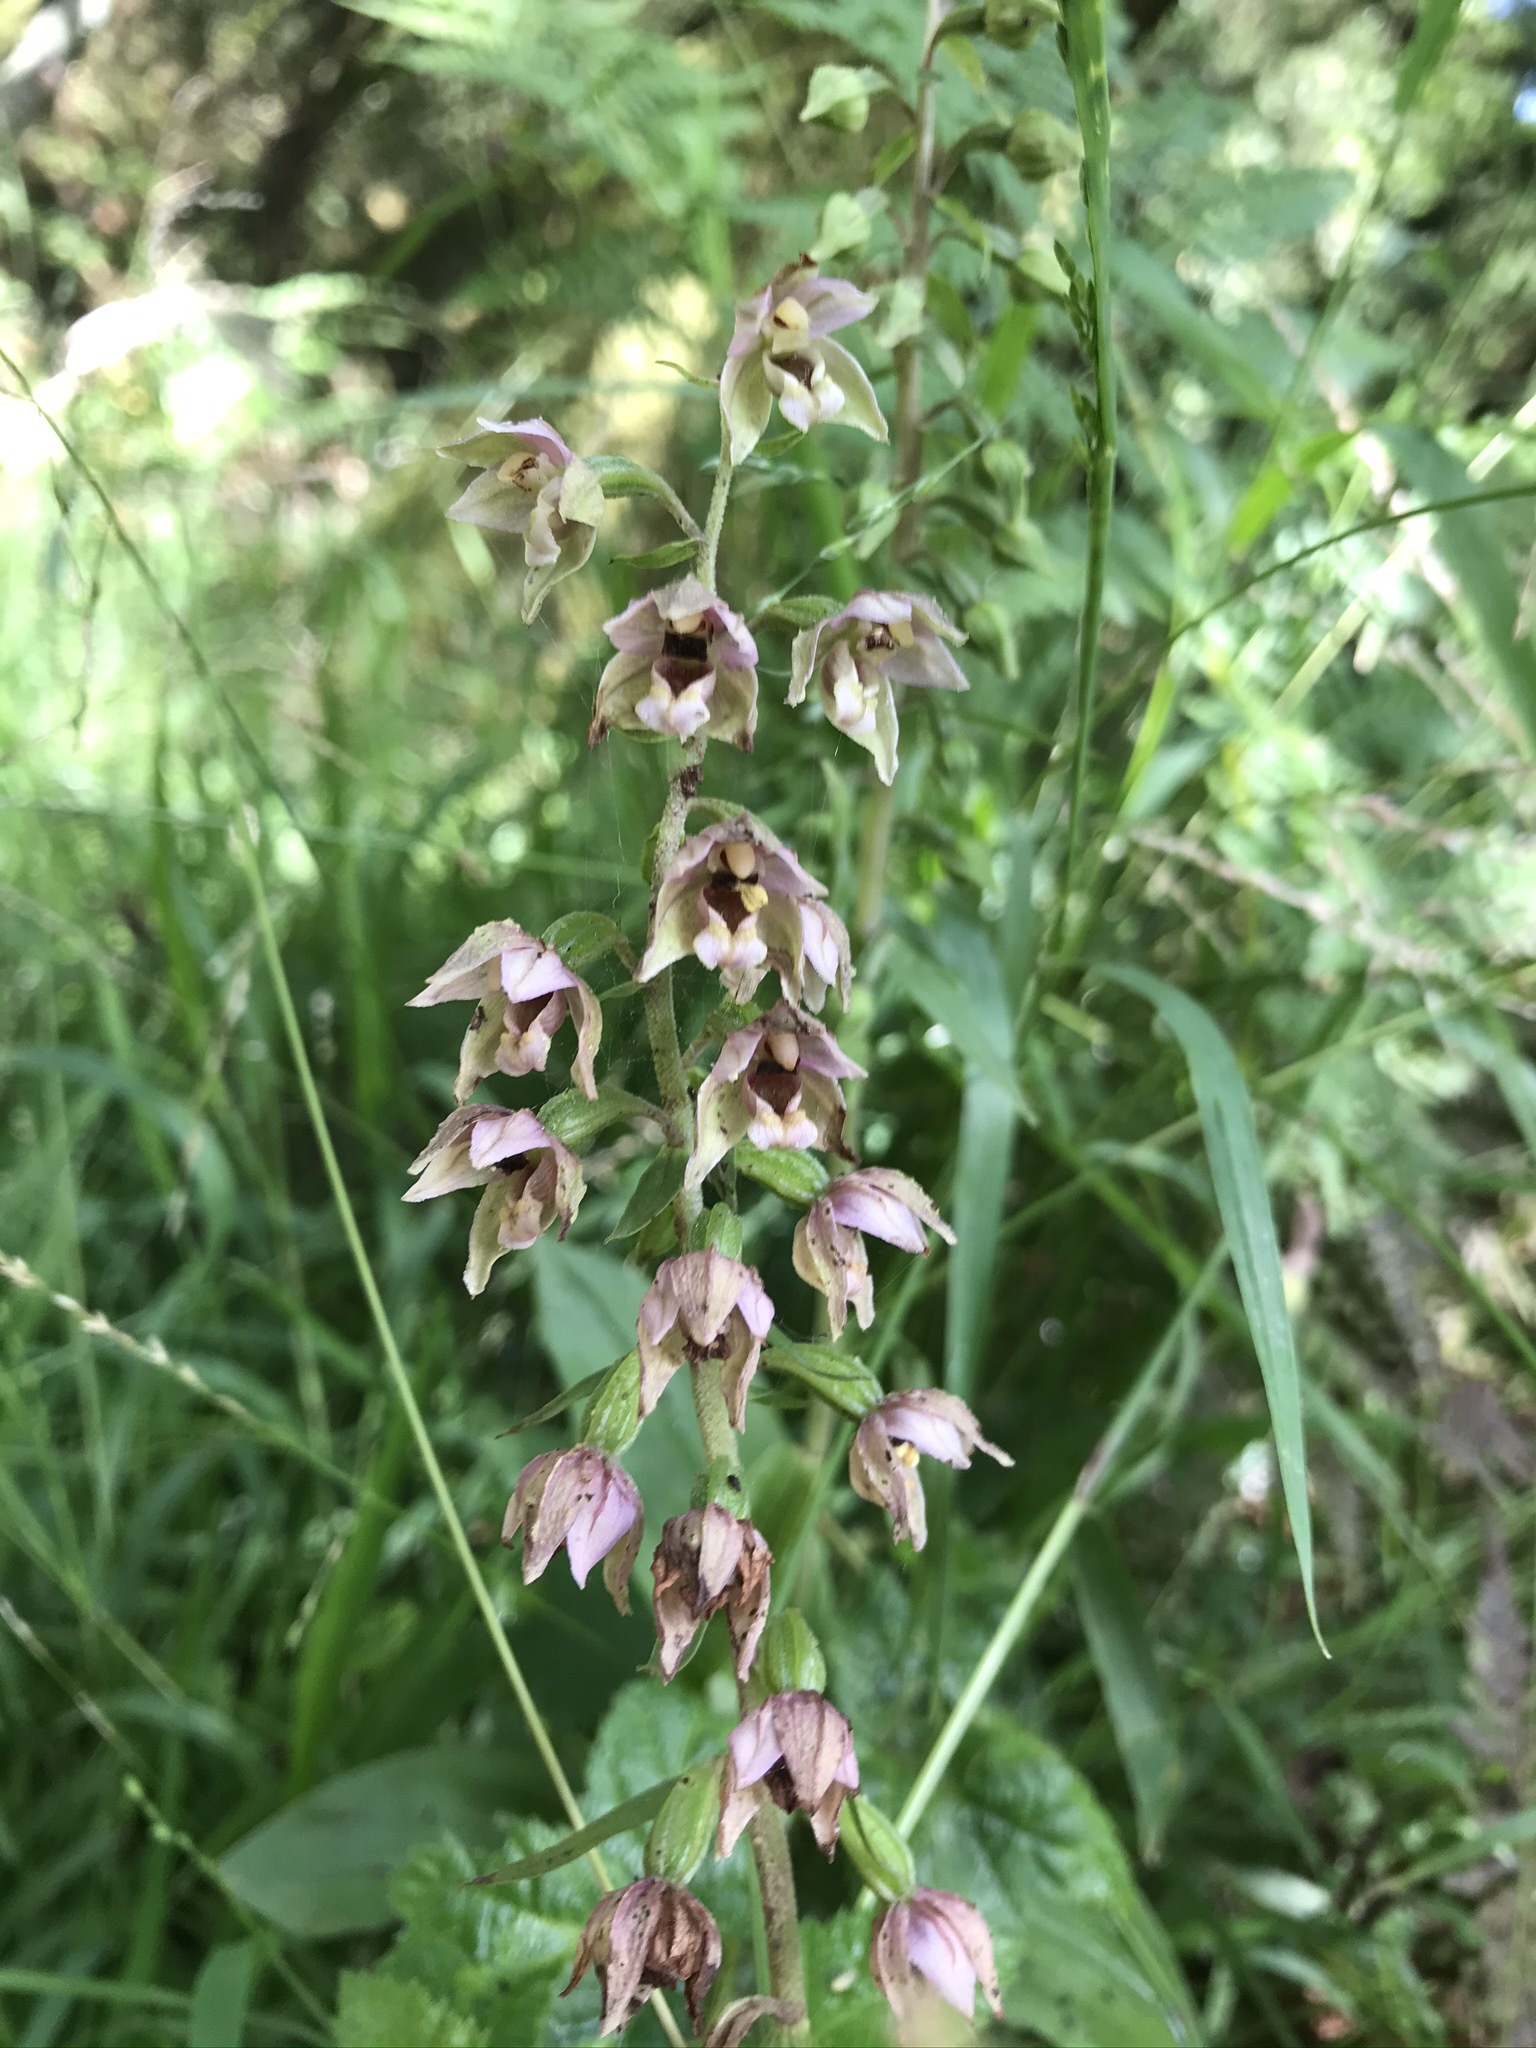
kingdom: Plantae
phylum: Tracheophyta
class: Liliopsida
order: Asparagales
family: Orchidaceae
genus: Epipactis
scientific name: Epipactis helleborine
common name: Broad-leaved helleborine
